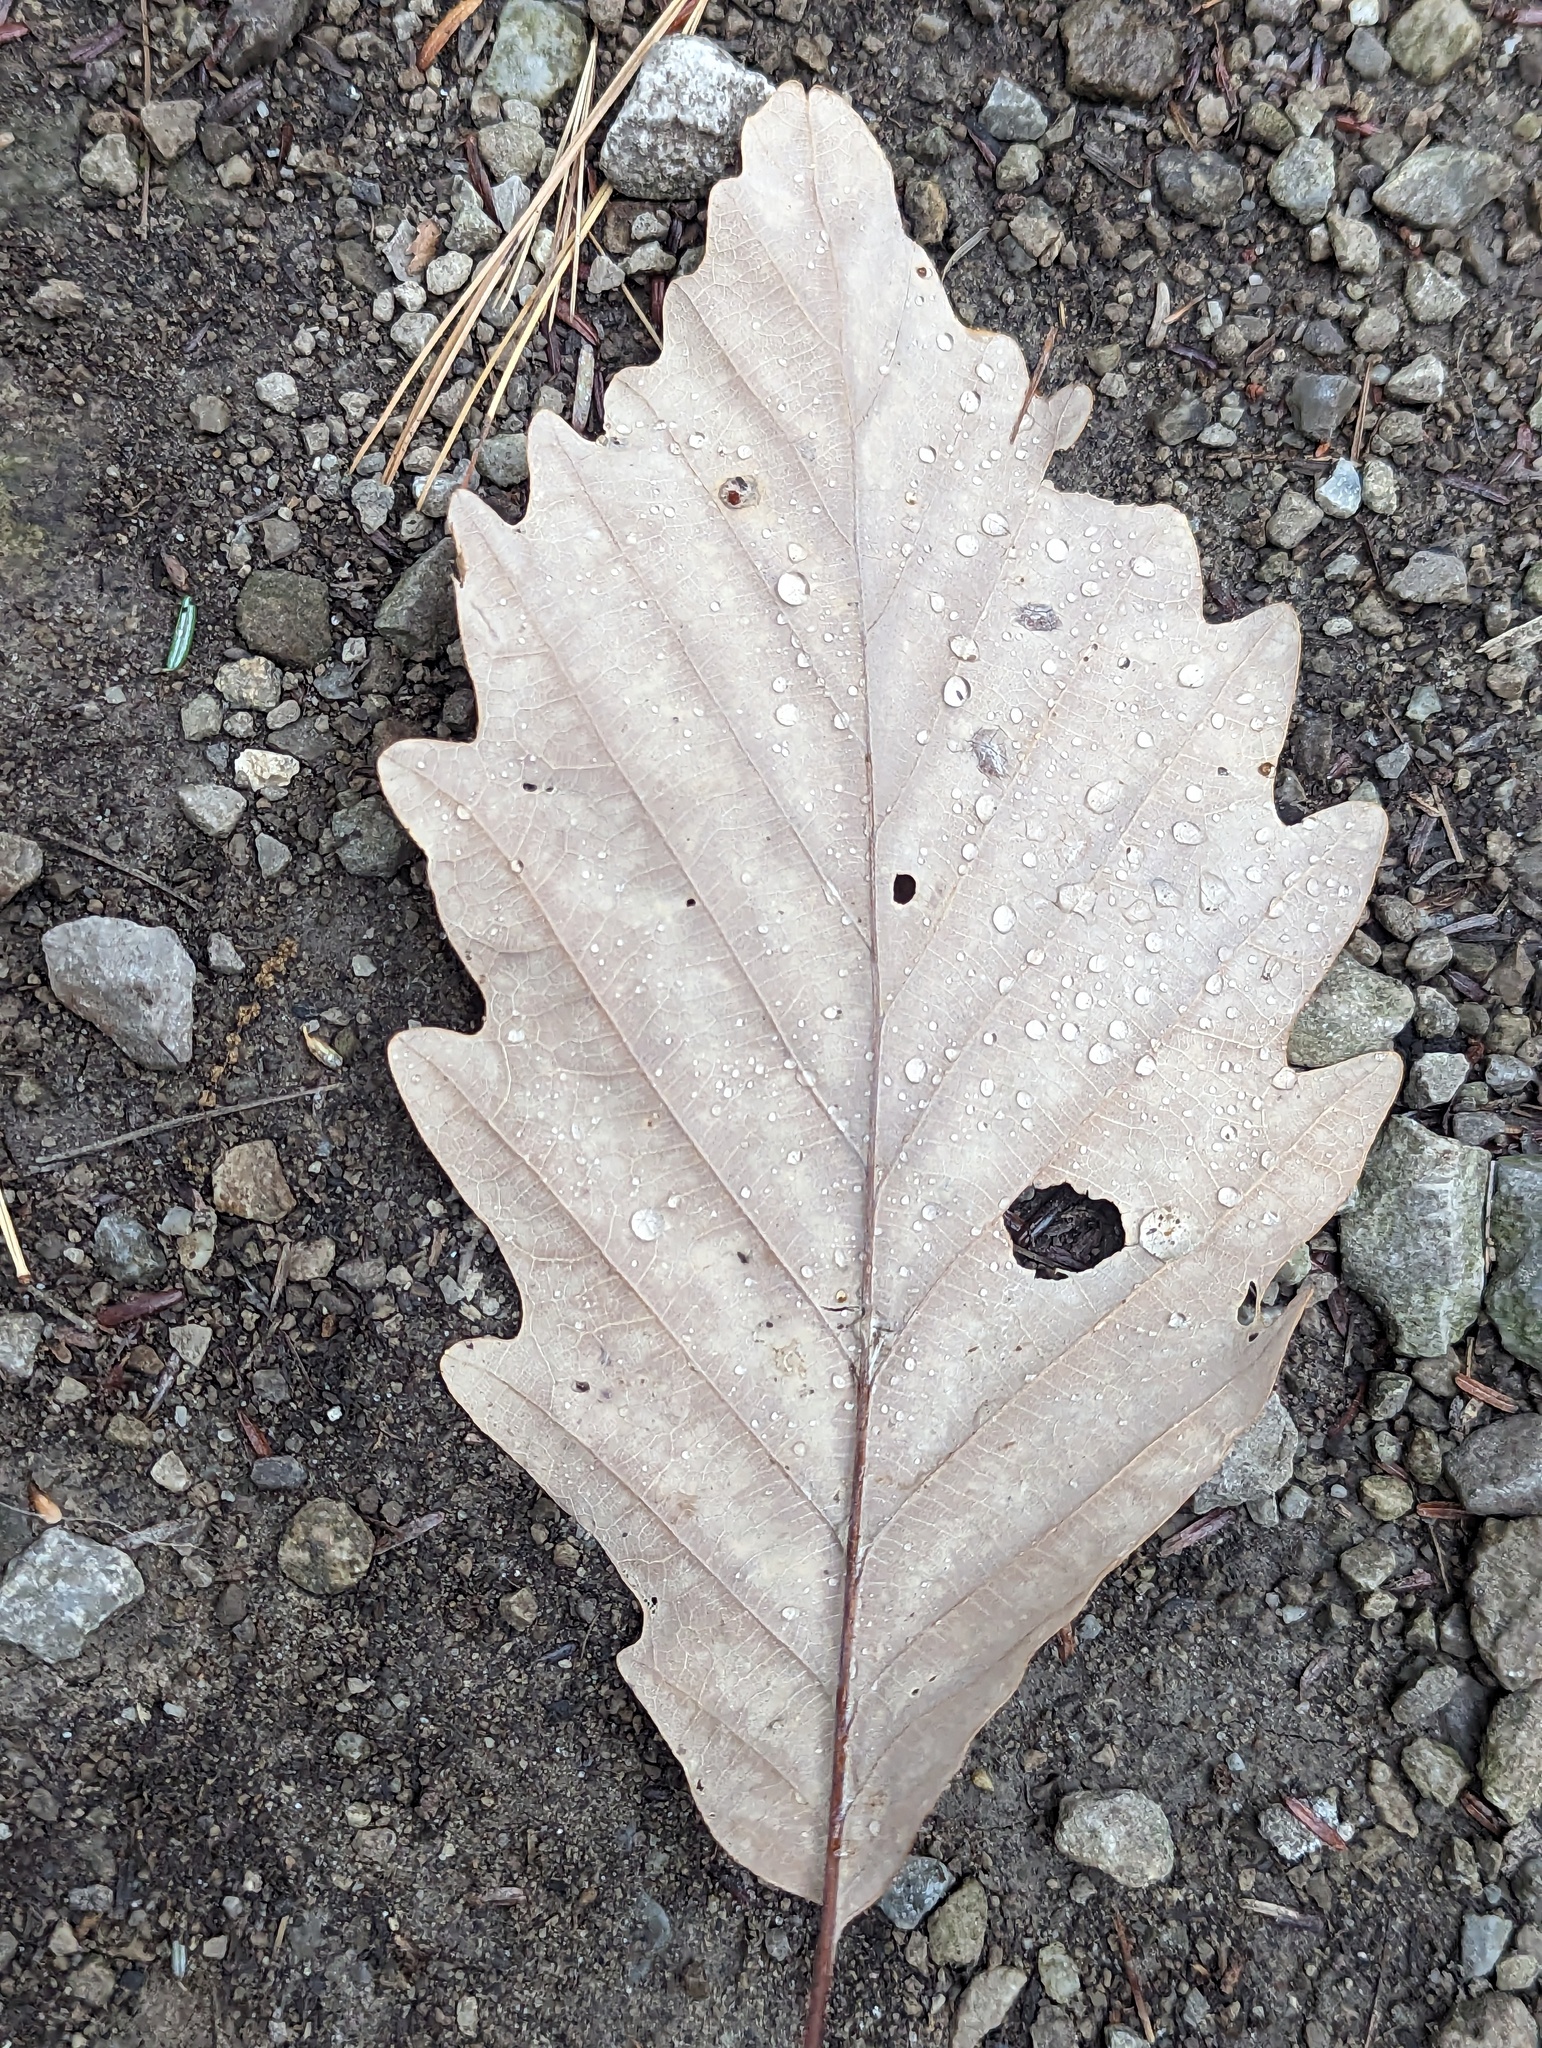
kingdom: Plantae
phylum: Tracheophyta
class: Magnoliopsida
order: Fagales
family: Fagaceae
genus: Quercus
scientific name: Quercus montana
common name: Chestnut oak
